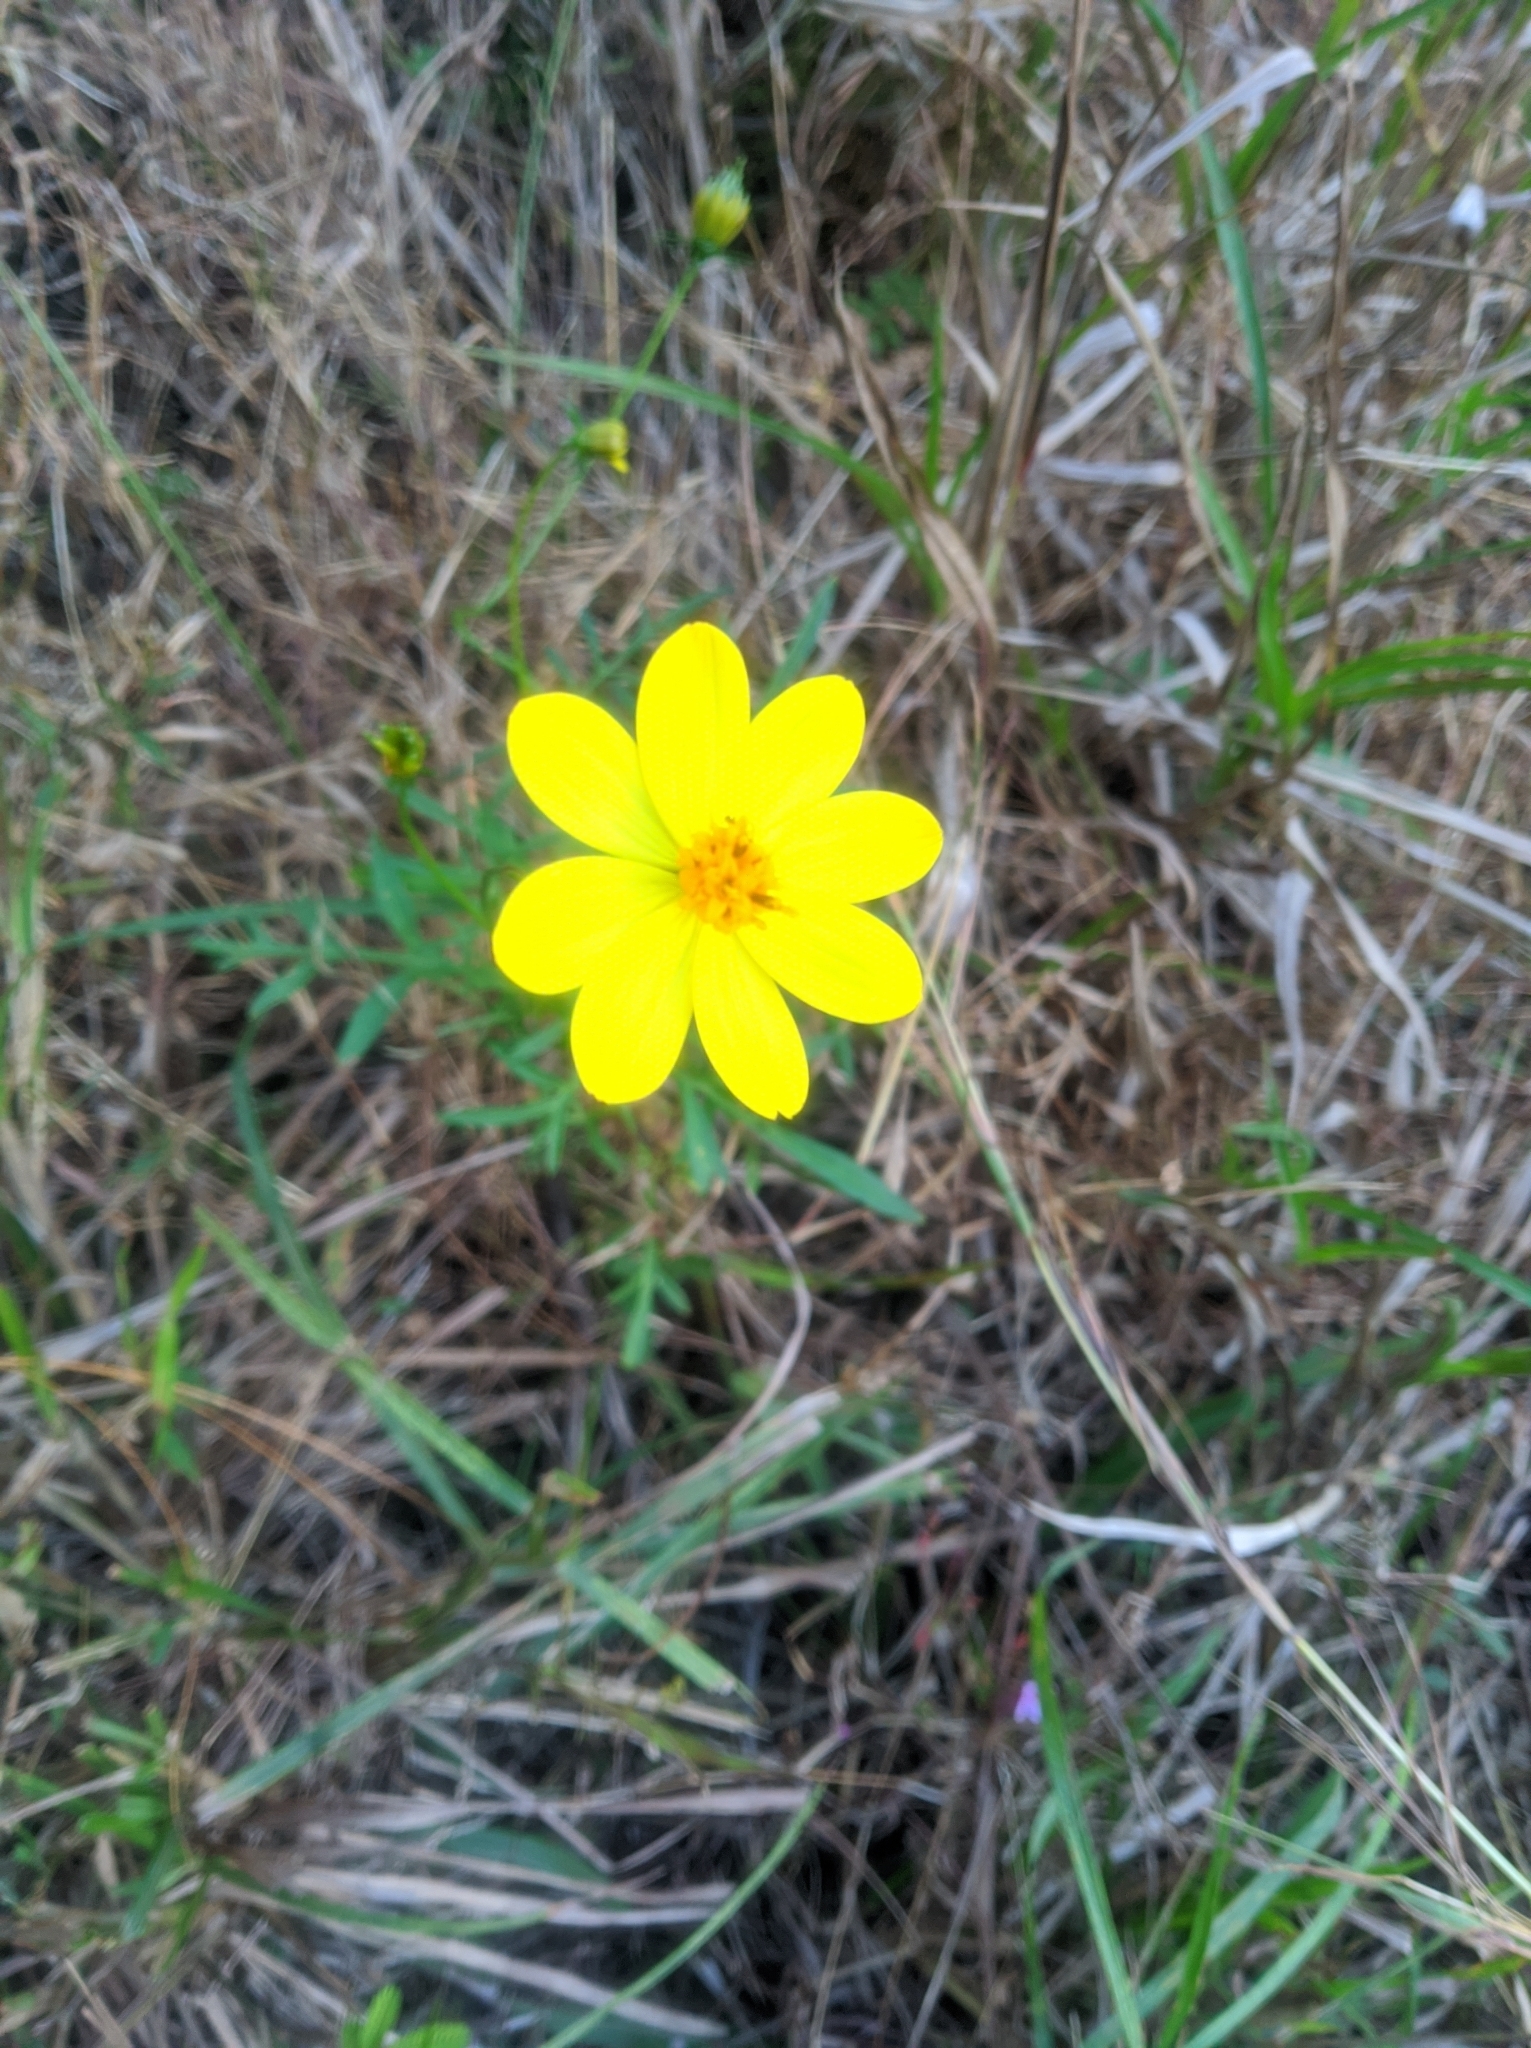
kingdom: Plantae
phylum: Tracheophyta
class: Magnoliopsida
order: Asterales
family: Asteraceae
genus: Cosmos
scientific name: Cosmos sulphureus
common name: Sulphur cosmos
